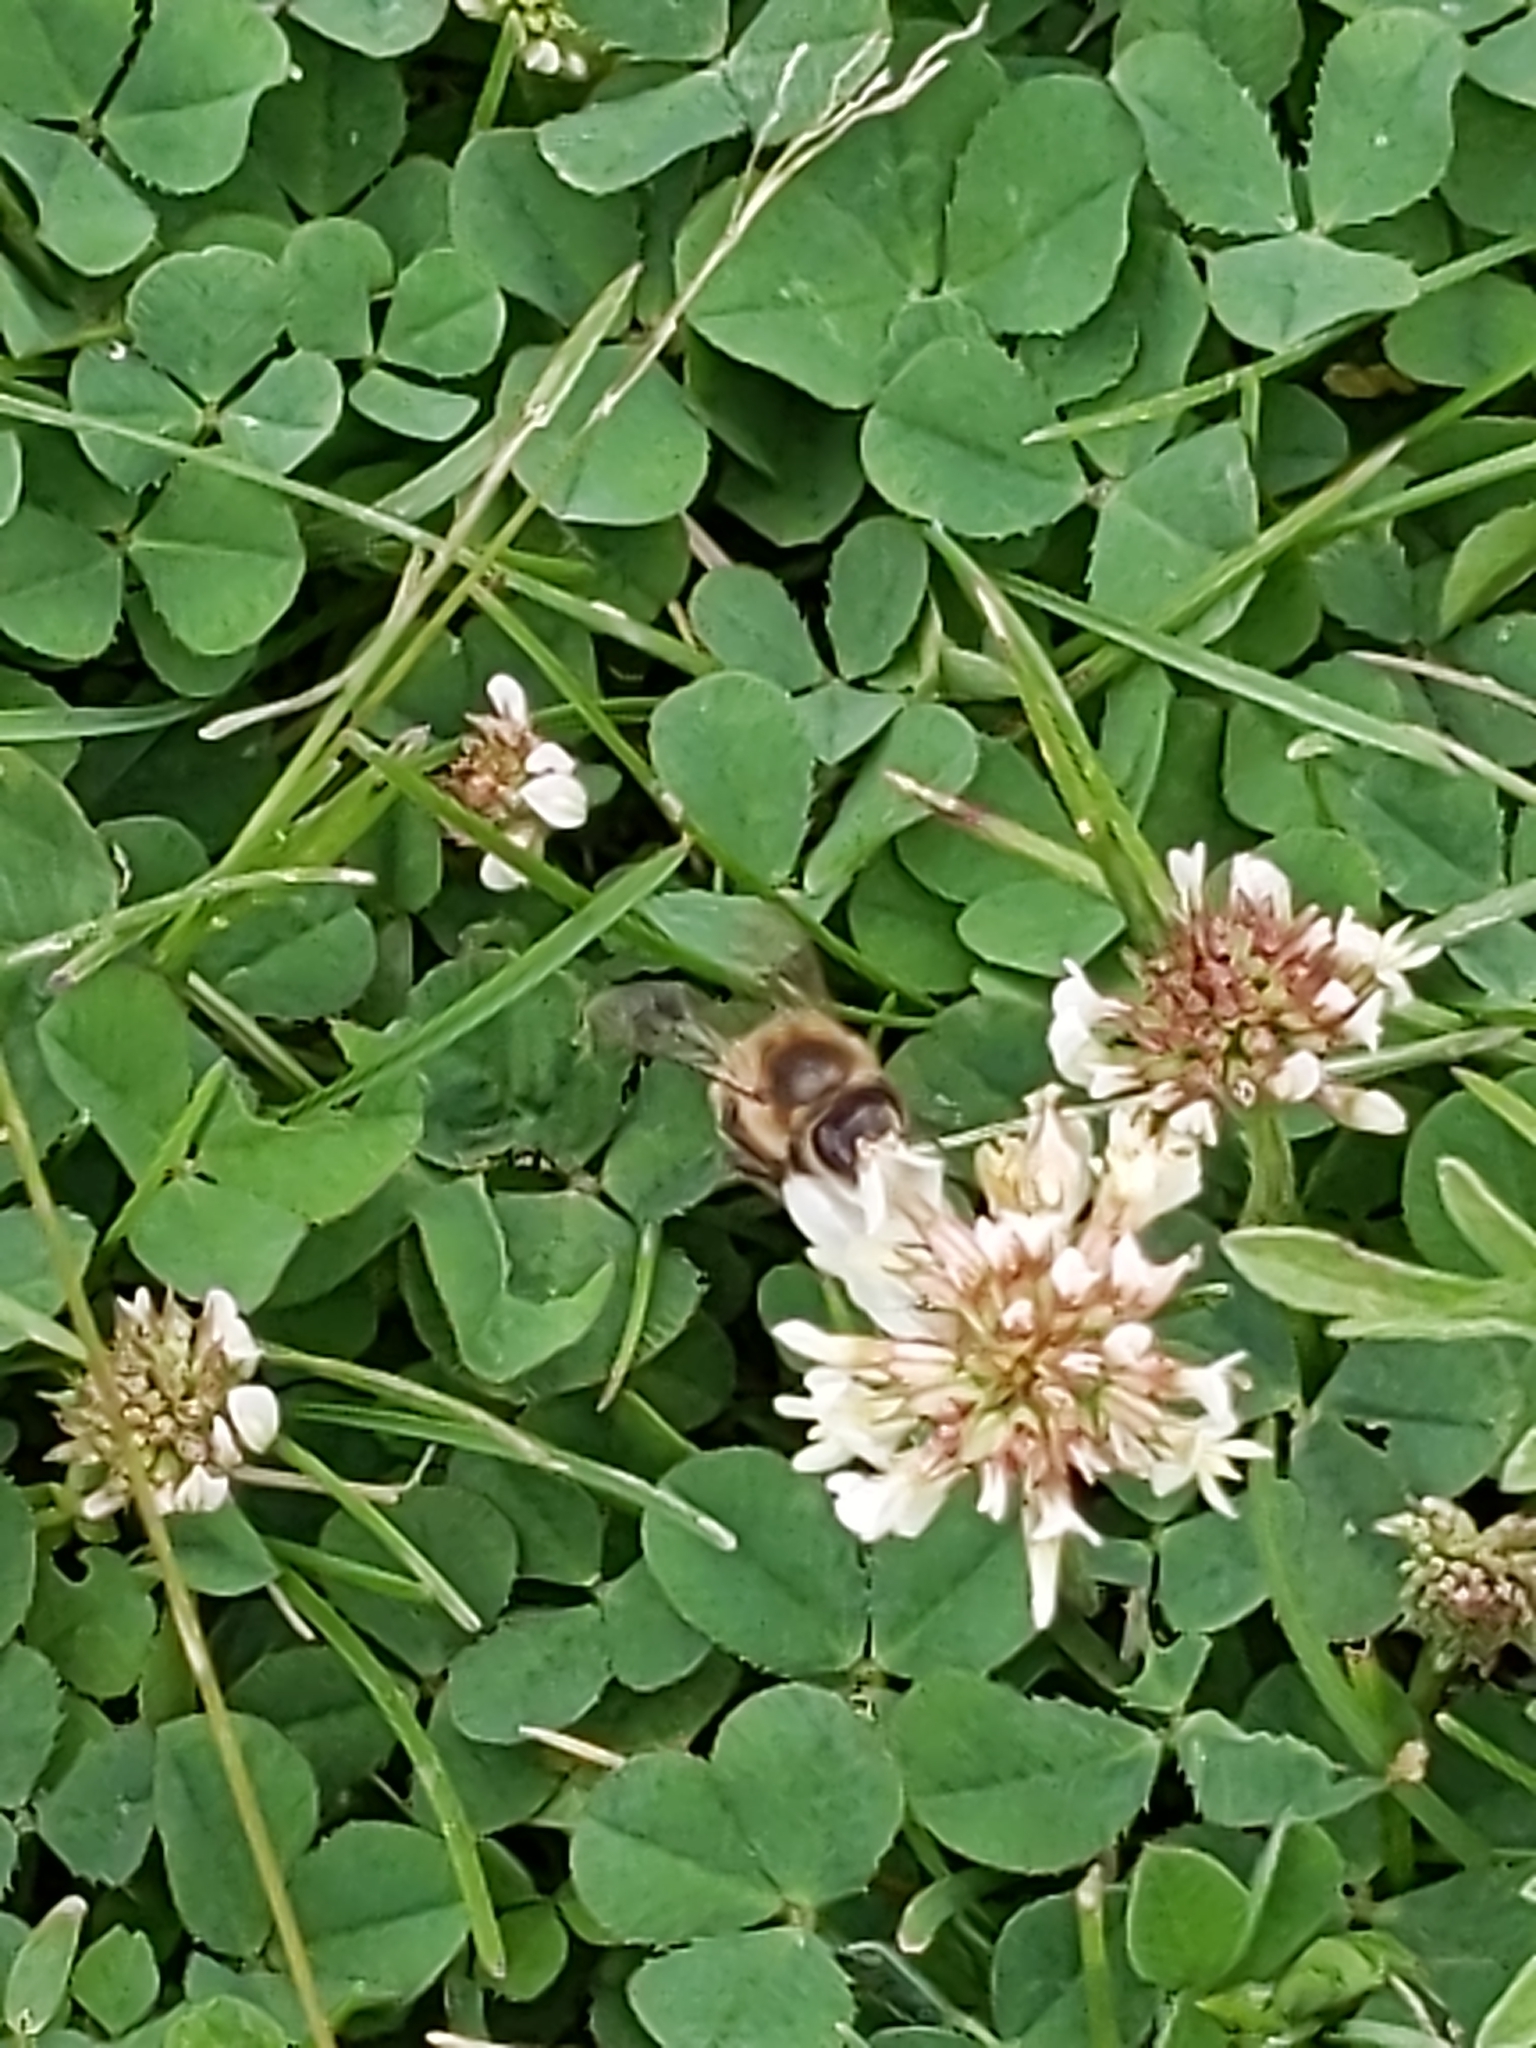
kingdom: Animalia
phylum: Arthropoda
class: Insecta
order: Hymenoptera
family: Apidae
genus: Apis
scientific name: Apis mellifera
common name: Honey bee
